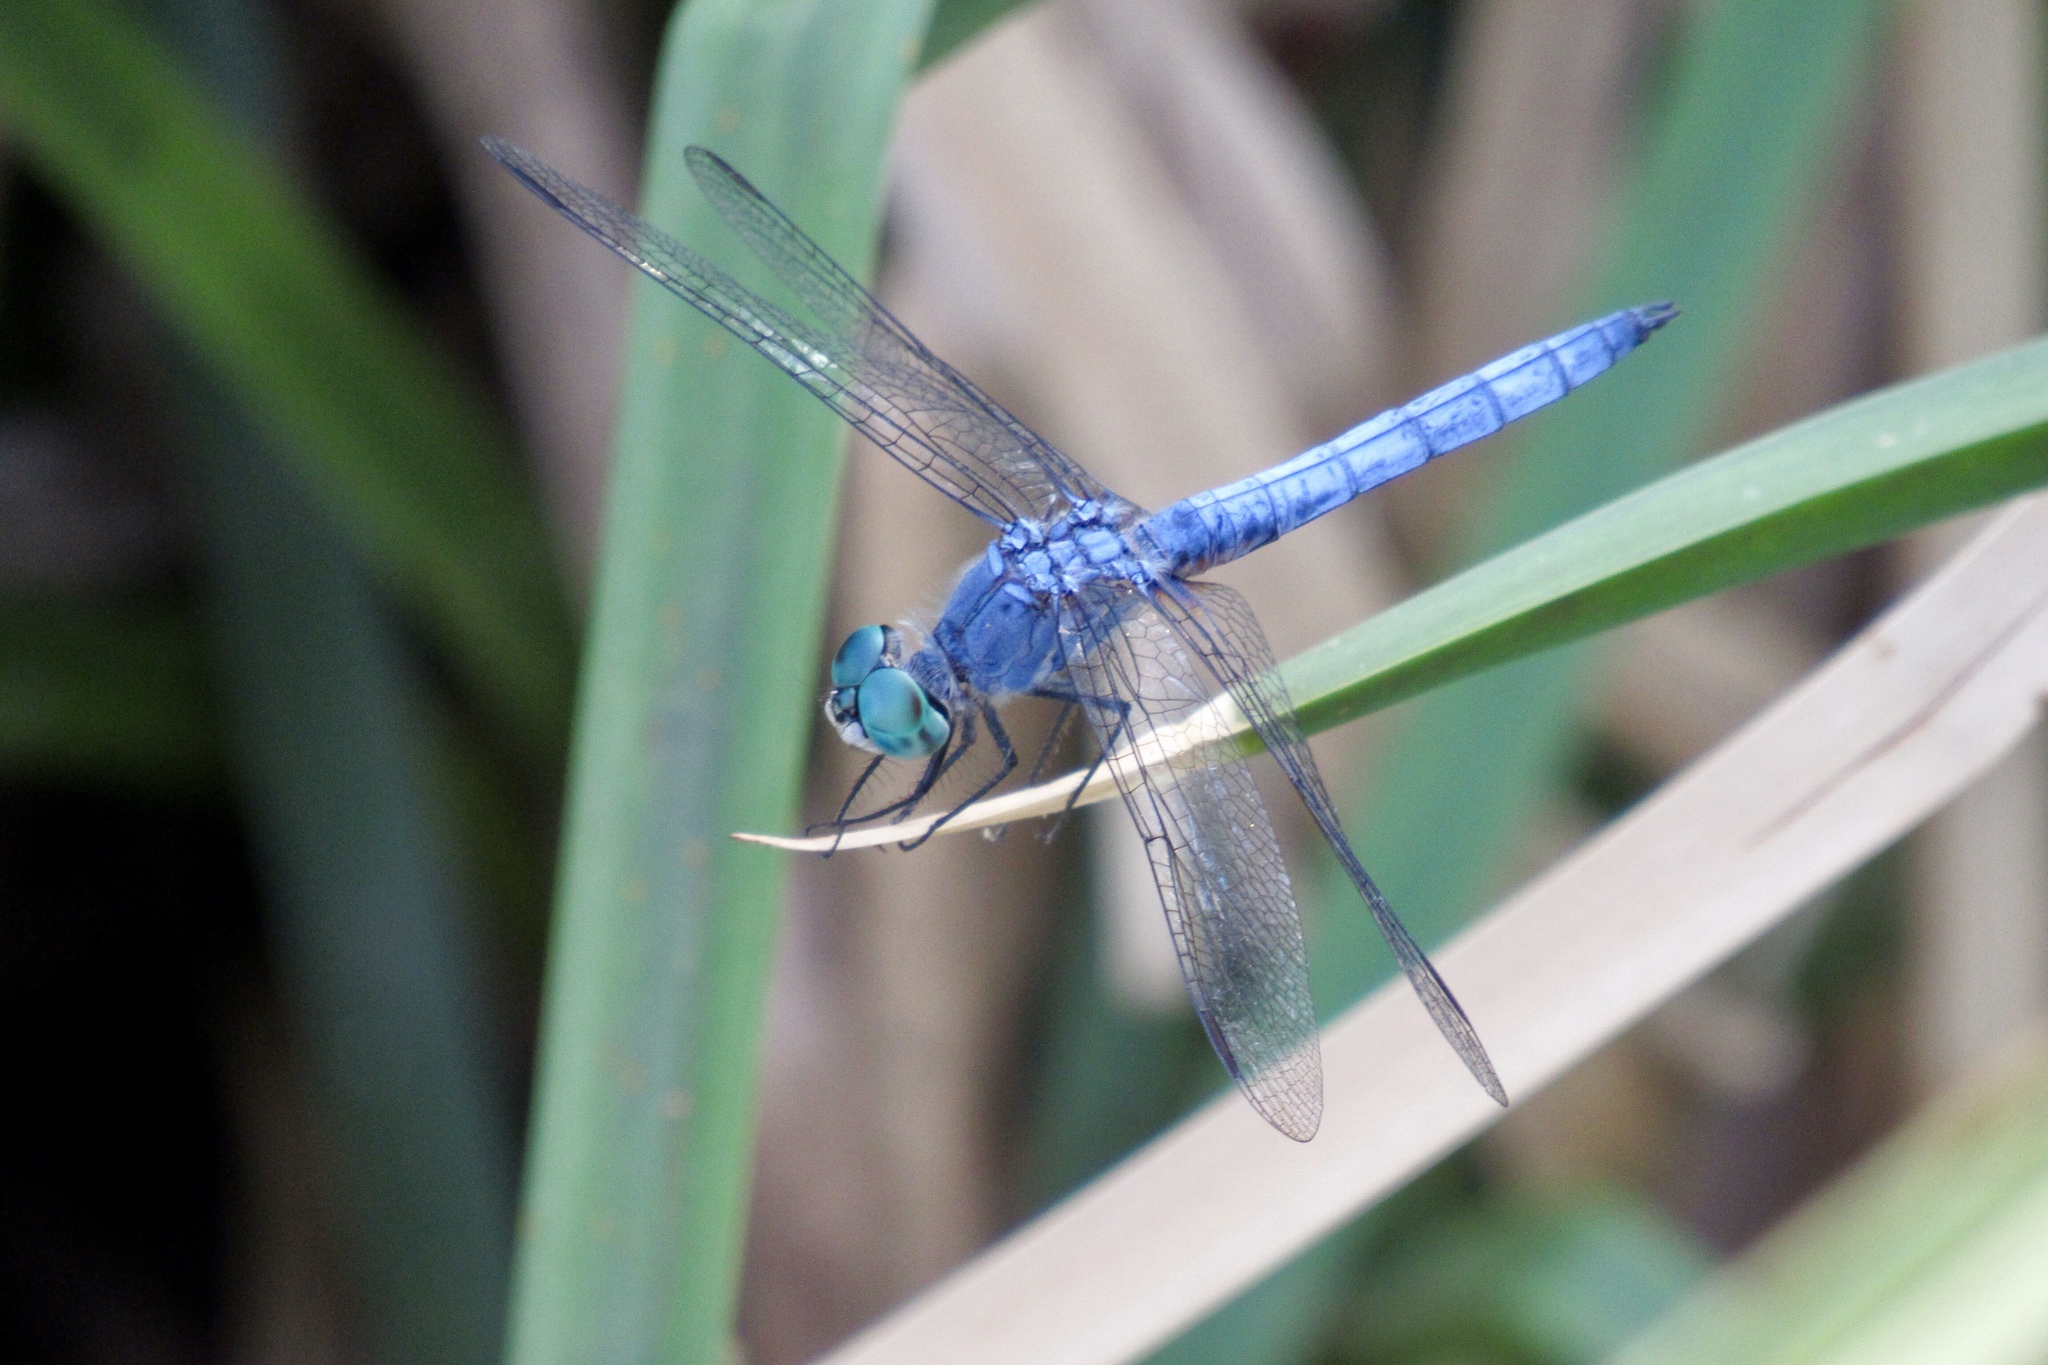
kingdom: Animalia
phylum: Arthropoda
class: Insecta
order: Odonata
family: Libellulidae
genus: Pachydiplax
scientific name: Pachydiplax longipennis
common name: Blue dasher
